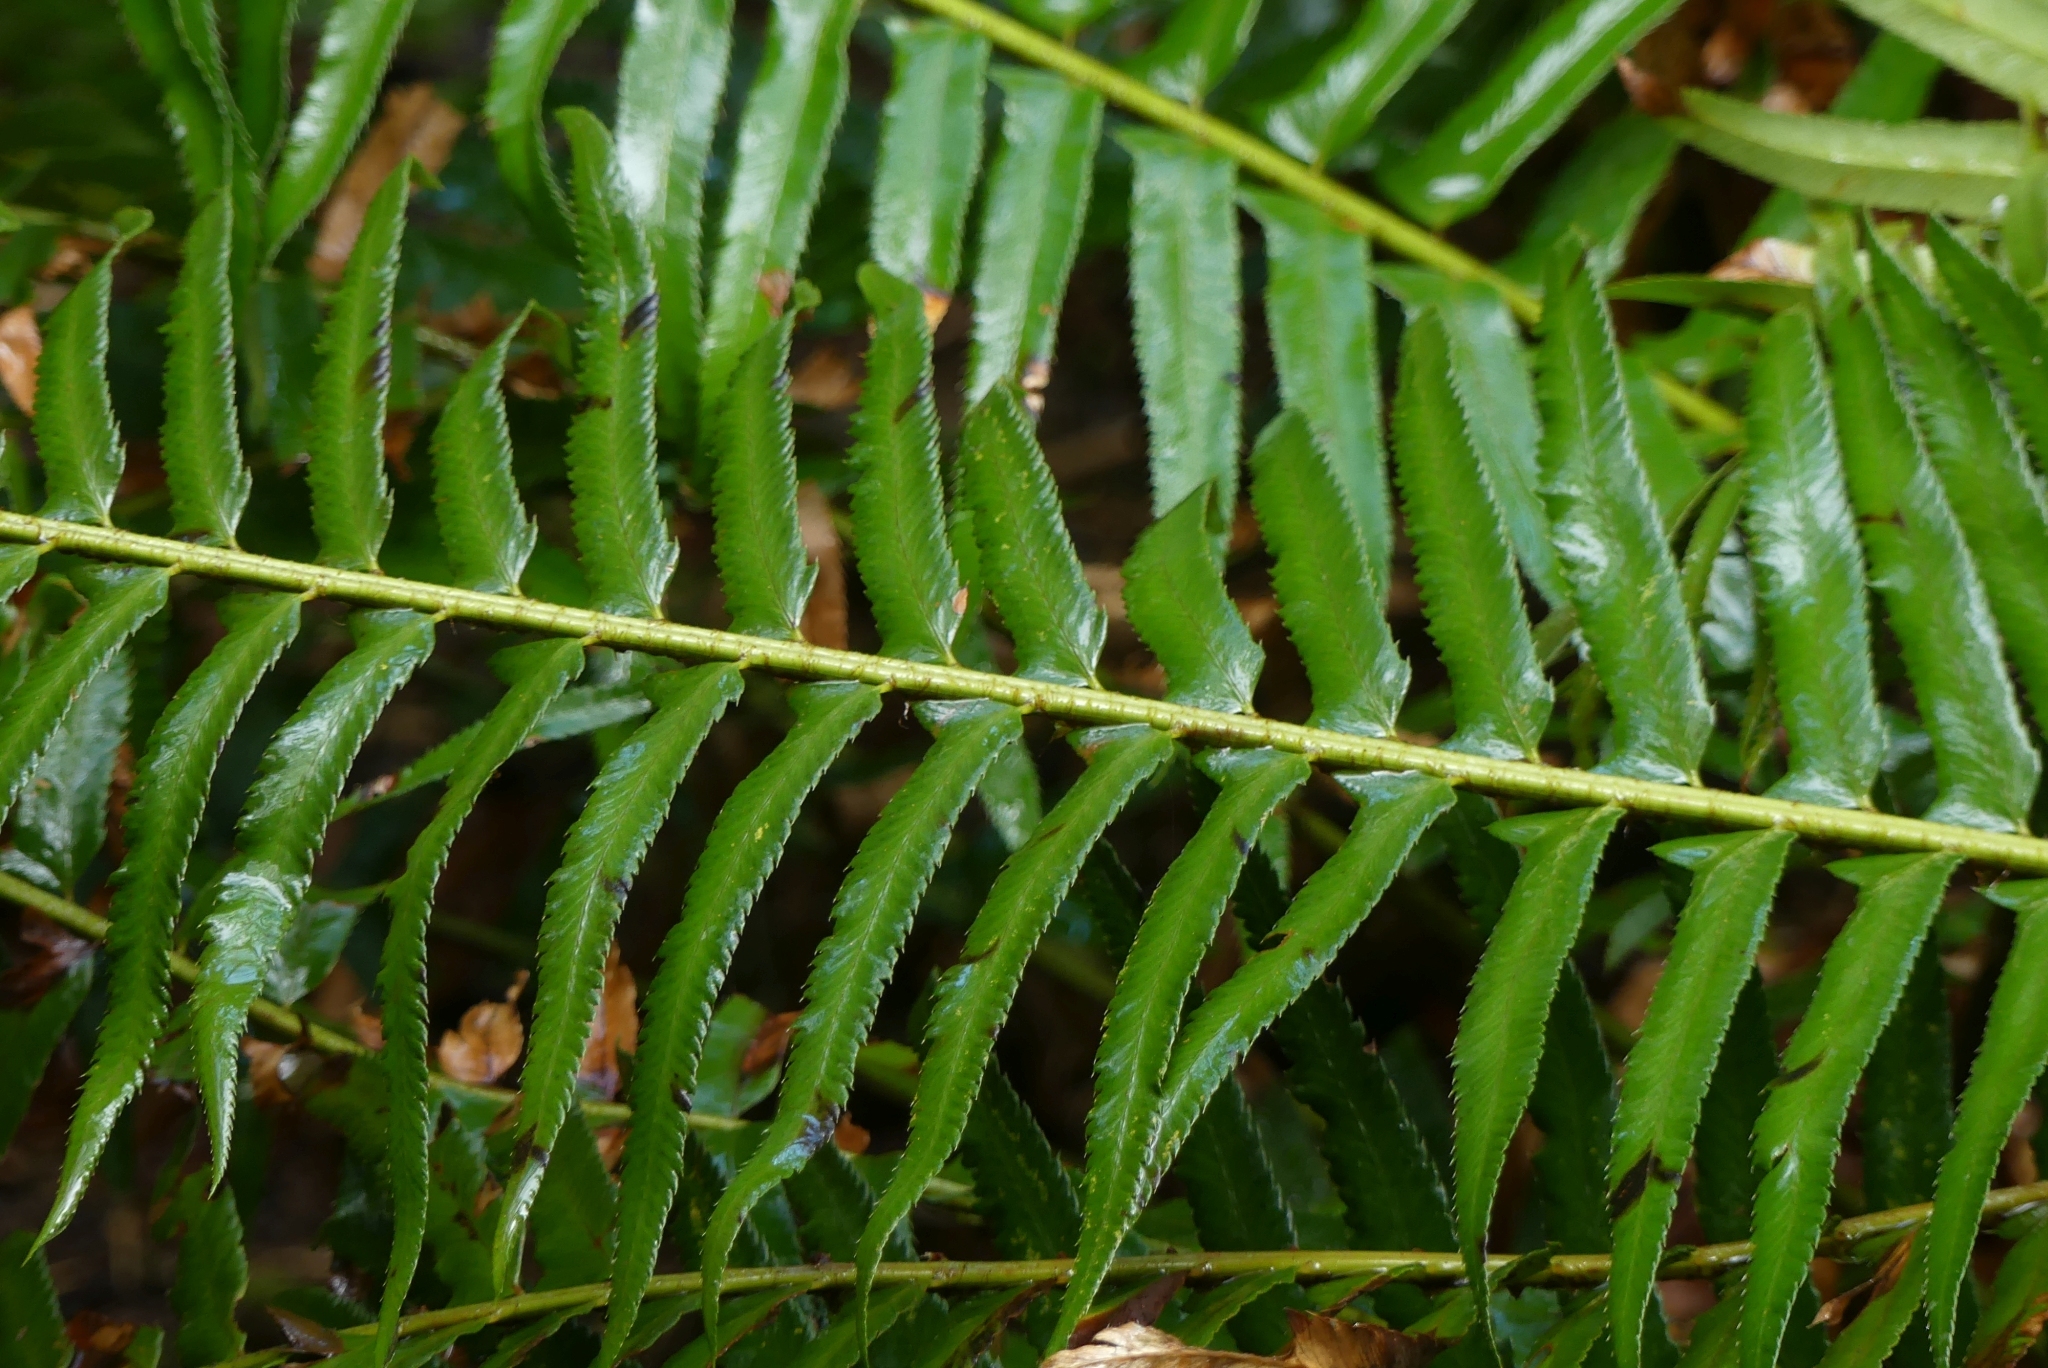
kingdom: Plantae
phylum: Tracheophyta
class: Polypodiopsida
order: Polypodiales
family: Dryopteridaceae
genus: Polystichum
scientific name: Polystichum munitum
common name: Western sword-fern
